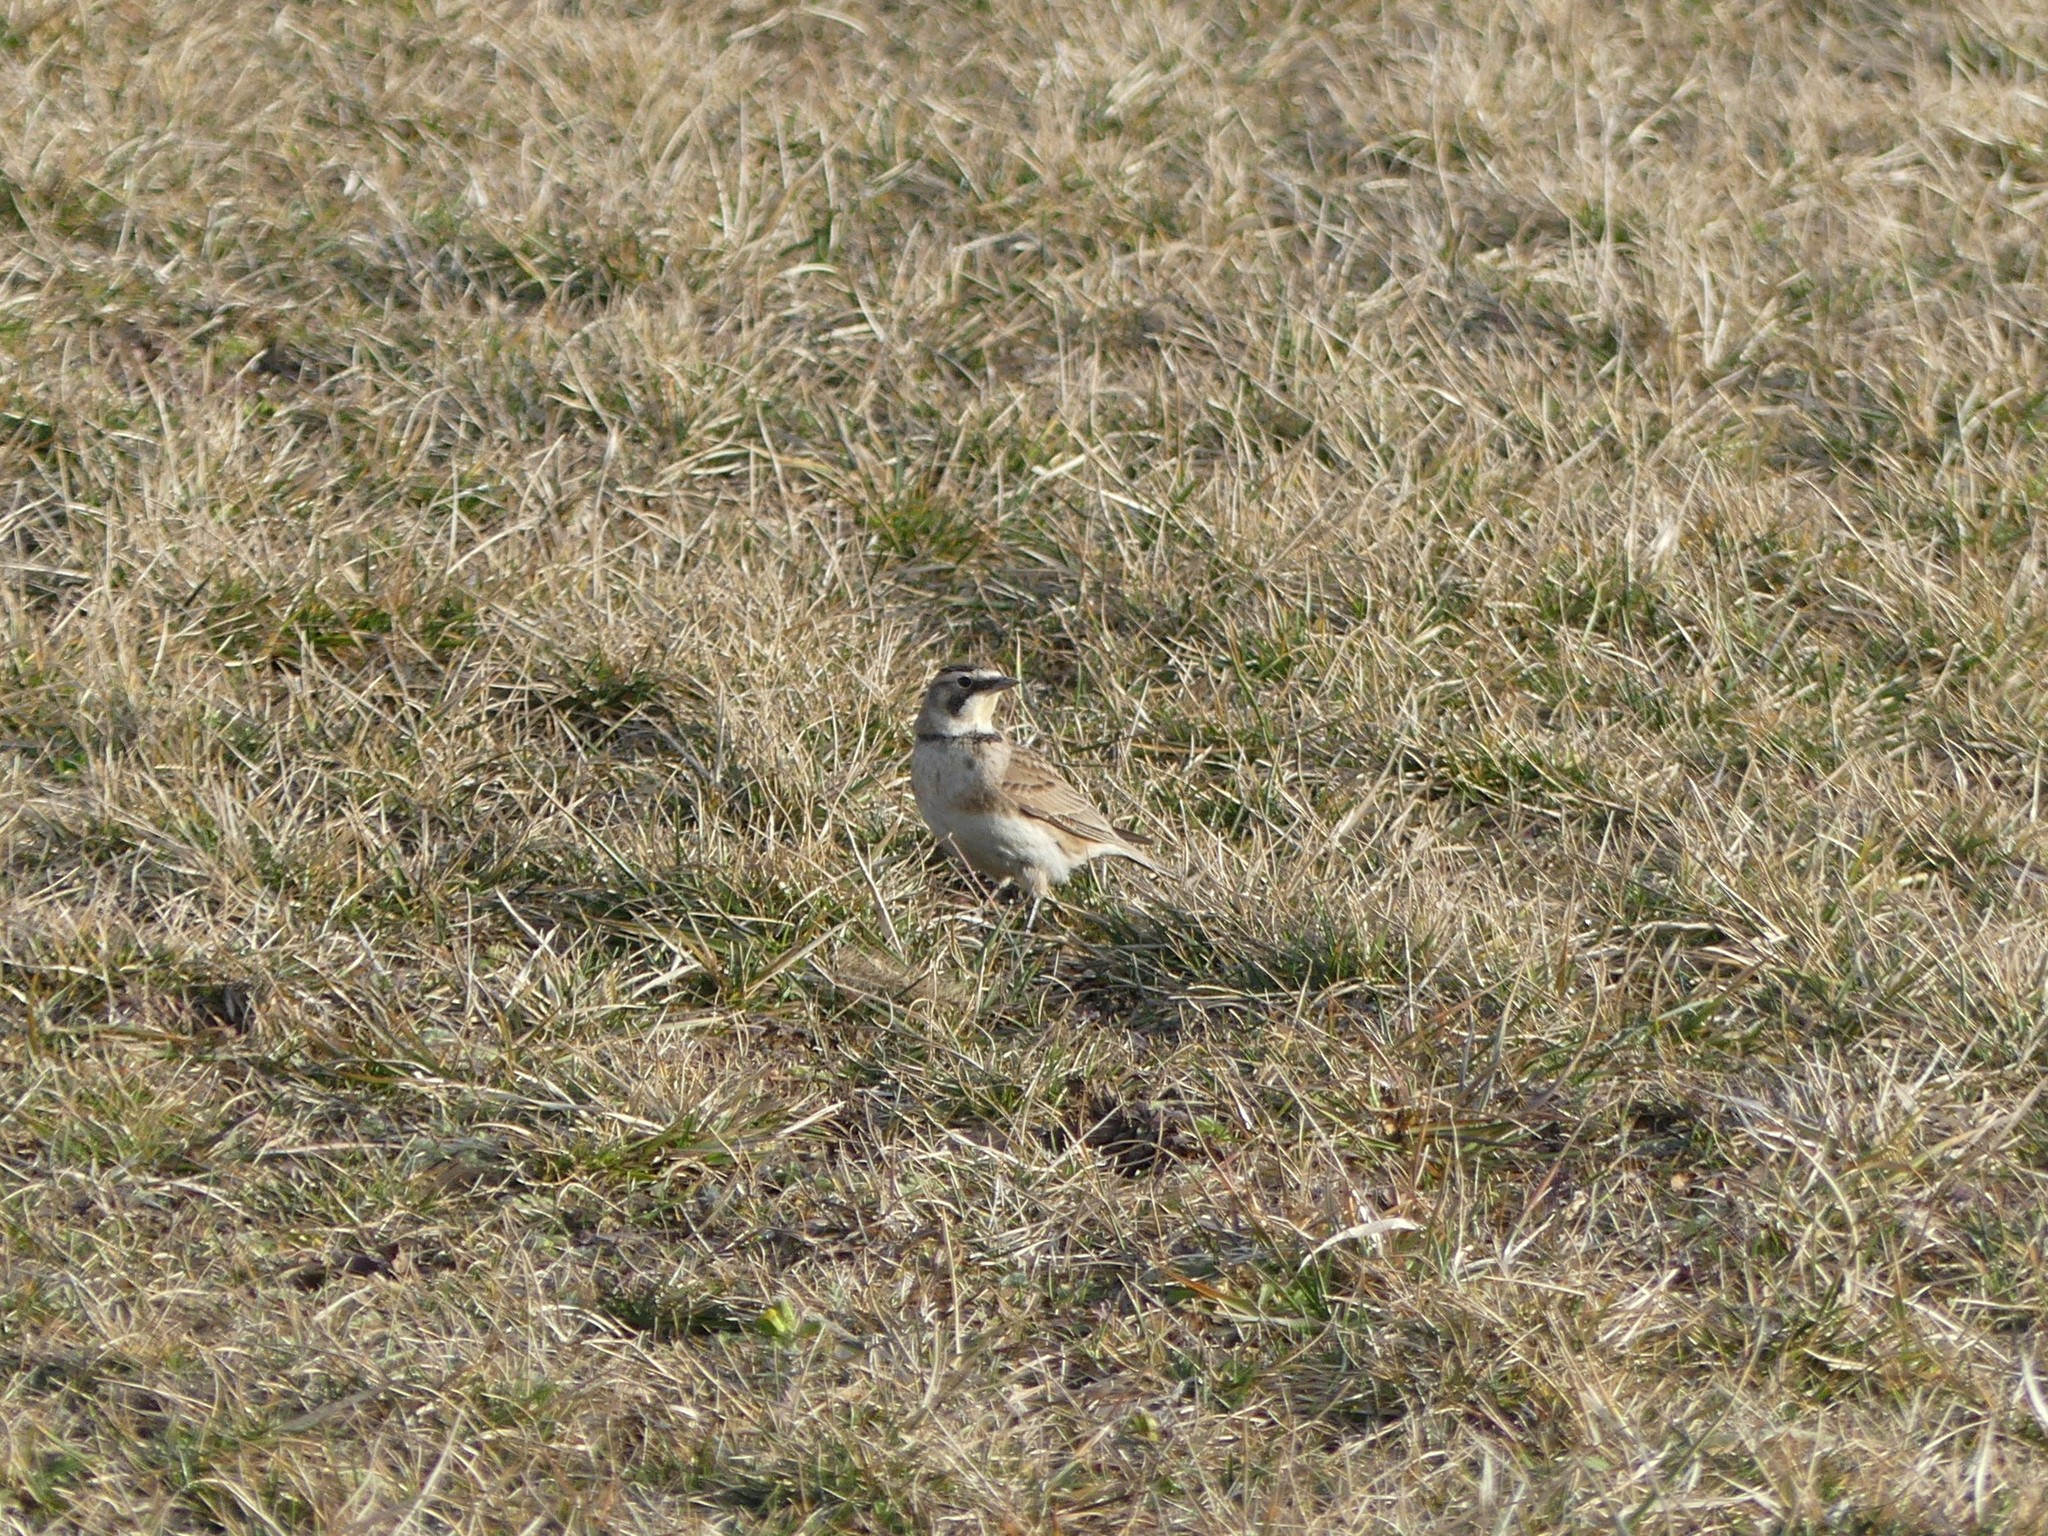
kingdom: Animalia
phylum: Chordata
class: Aves
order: Passeriformes
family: Alaudidae
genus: Eremophila
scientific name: Eremophila alpestris
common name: Horned lark
